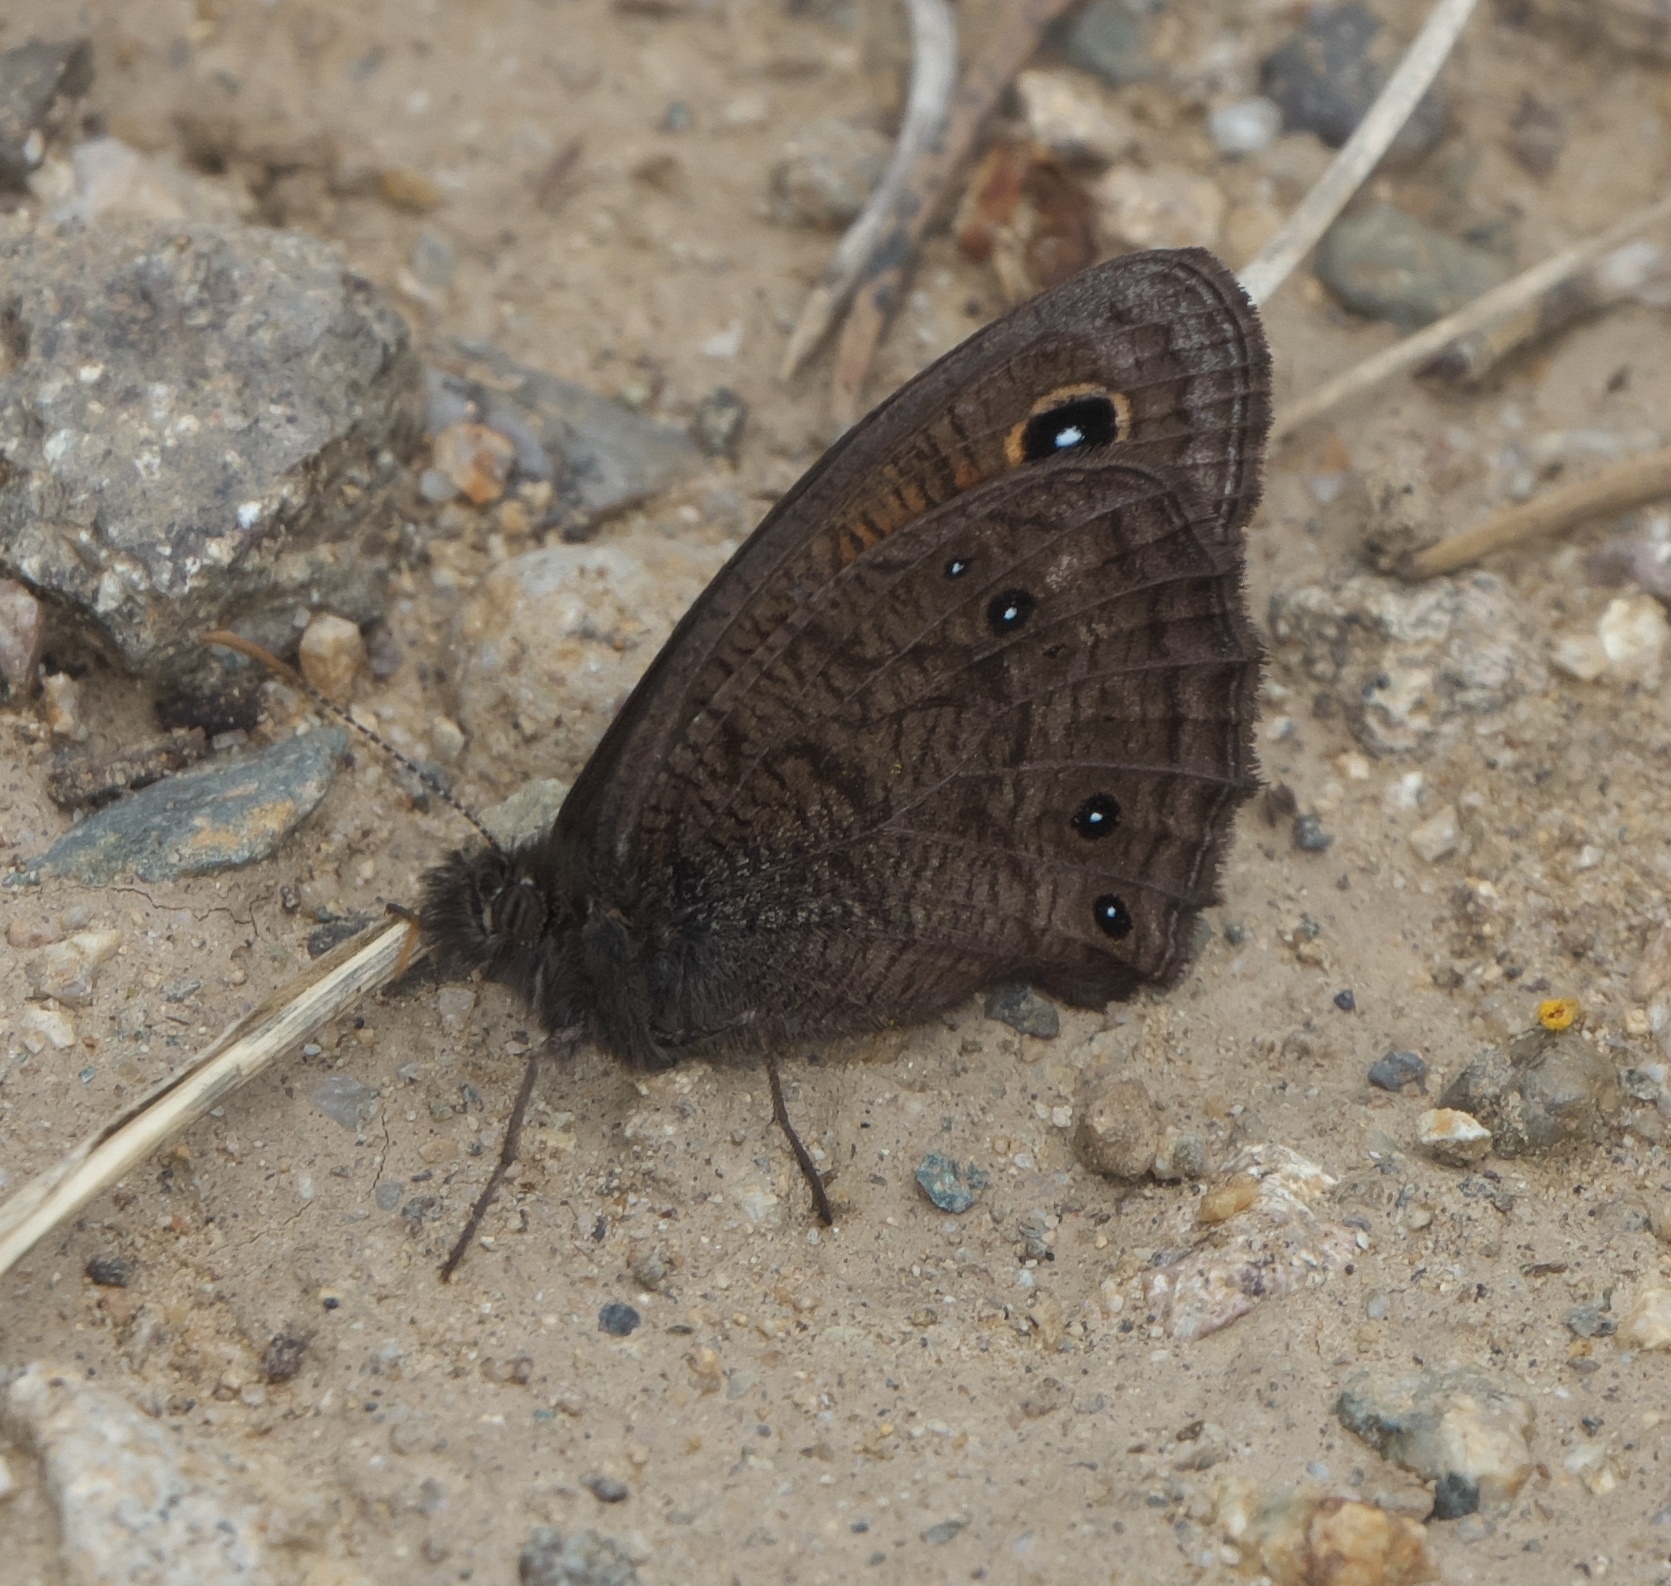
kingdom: Animalia
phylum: Arthropoda
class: Insecta
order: Lepidoptera
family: Nymphalidae
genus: Cercyonis
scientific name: Cercyonis meadi
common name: Mead's wood-nymph
